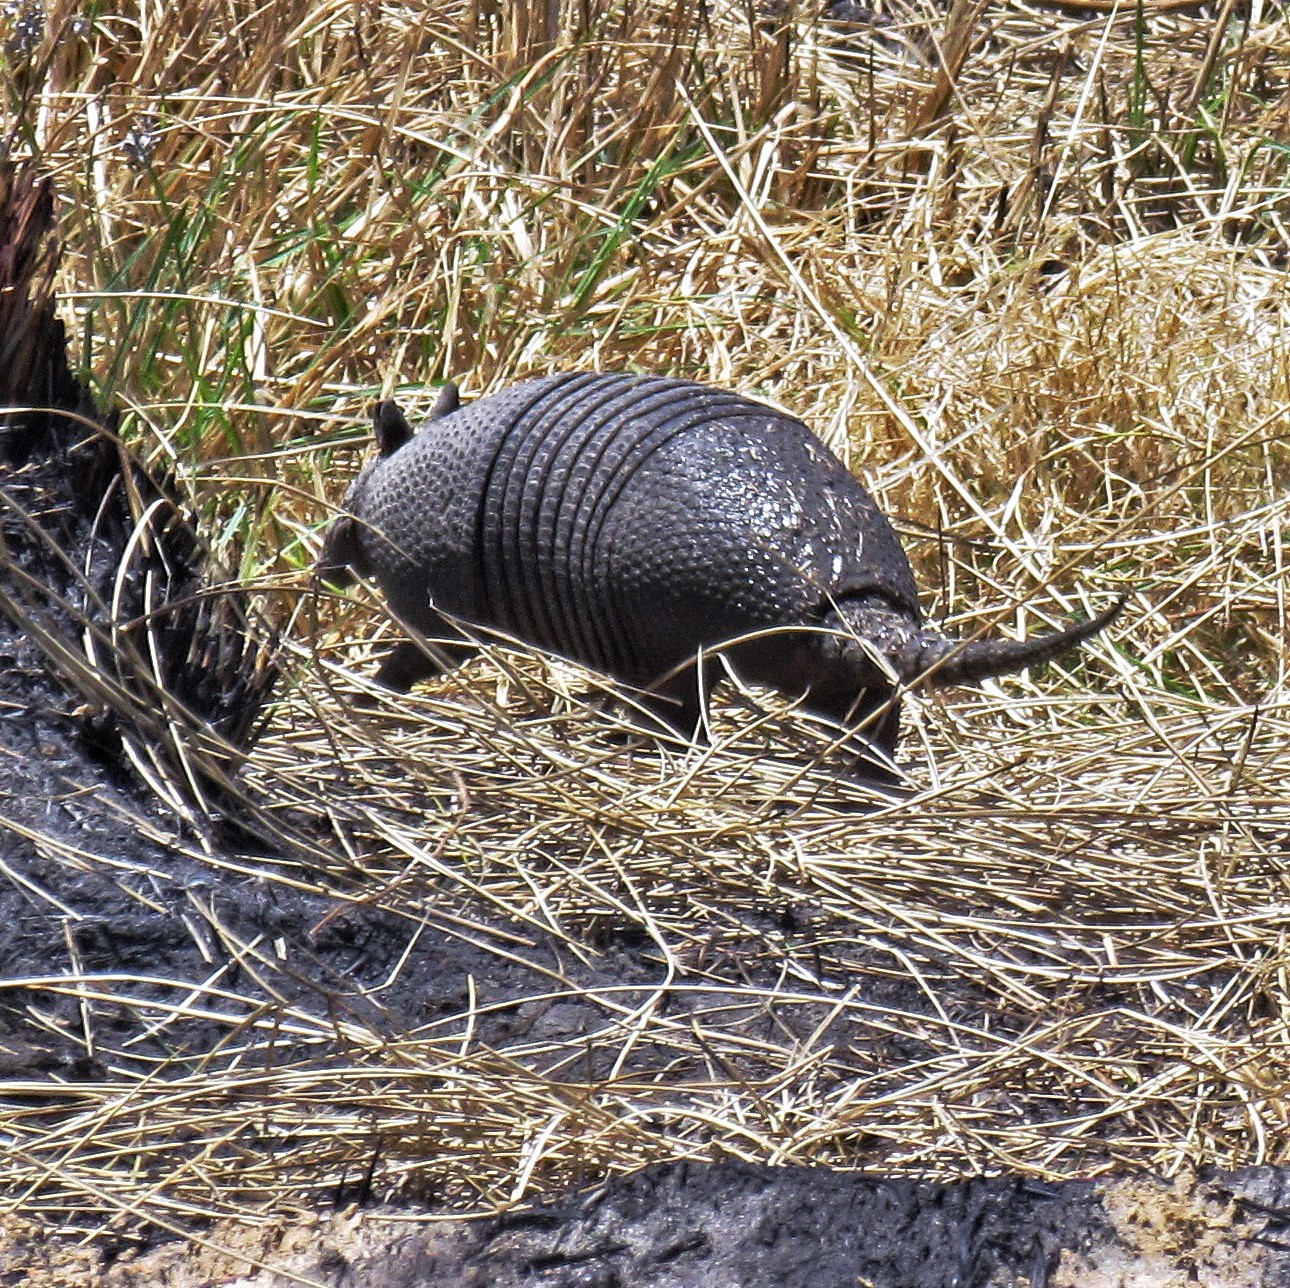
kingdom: Animalia
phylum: Chordata
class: Mammalia
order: Cingulata
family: Dasypodidae
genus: Dasypus
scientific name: Dasypus septemcinctus
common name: Seven-banded armadillo
